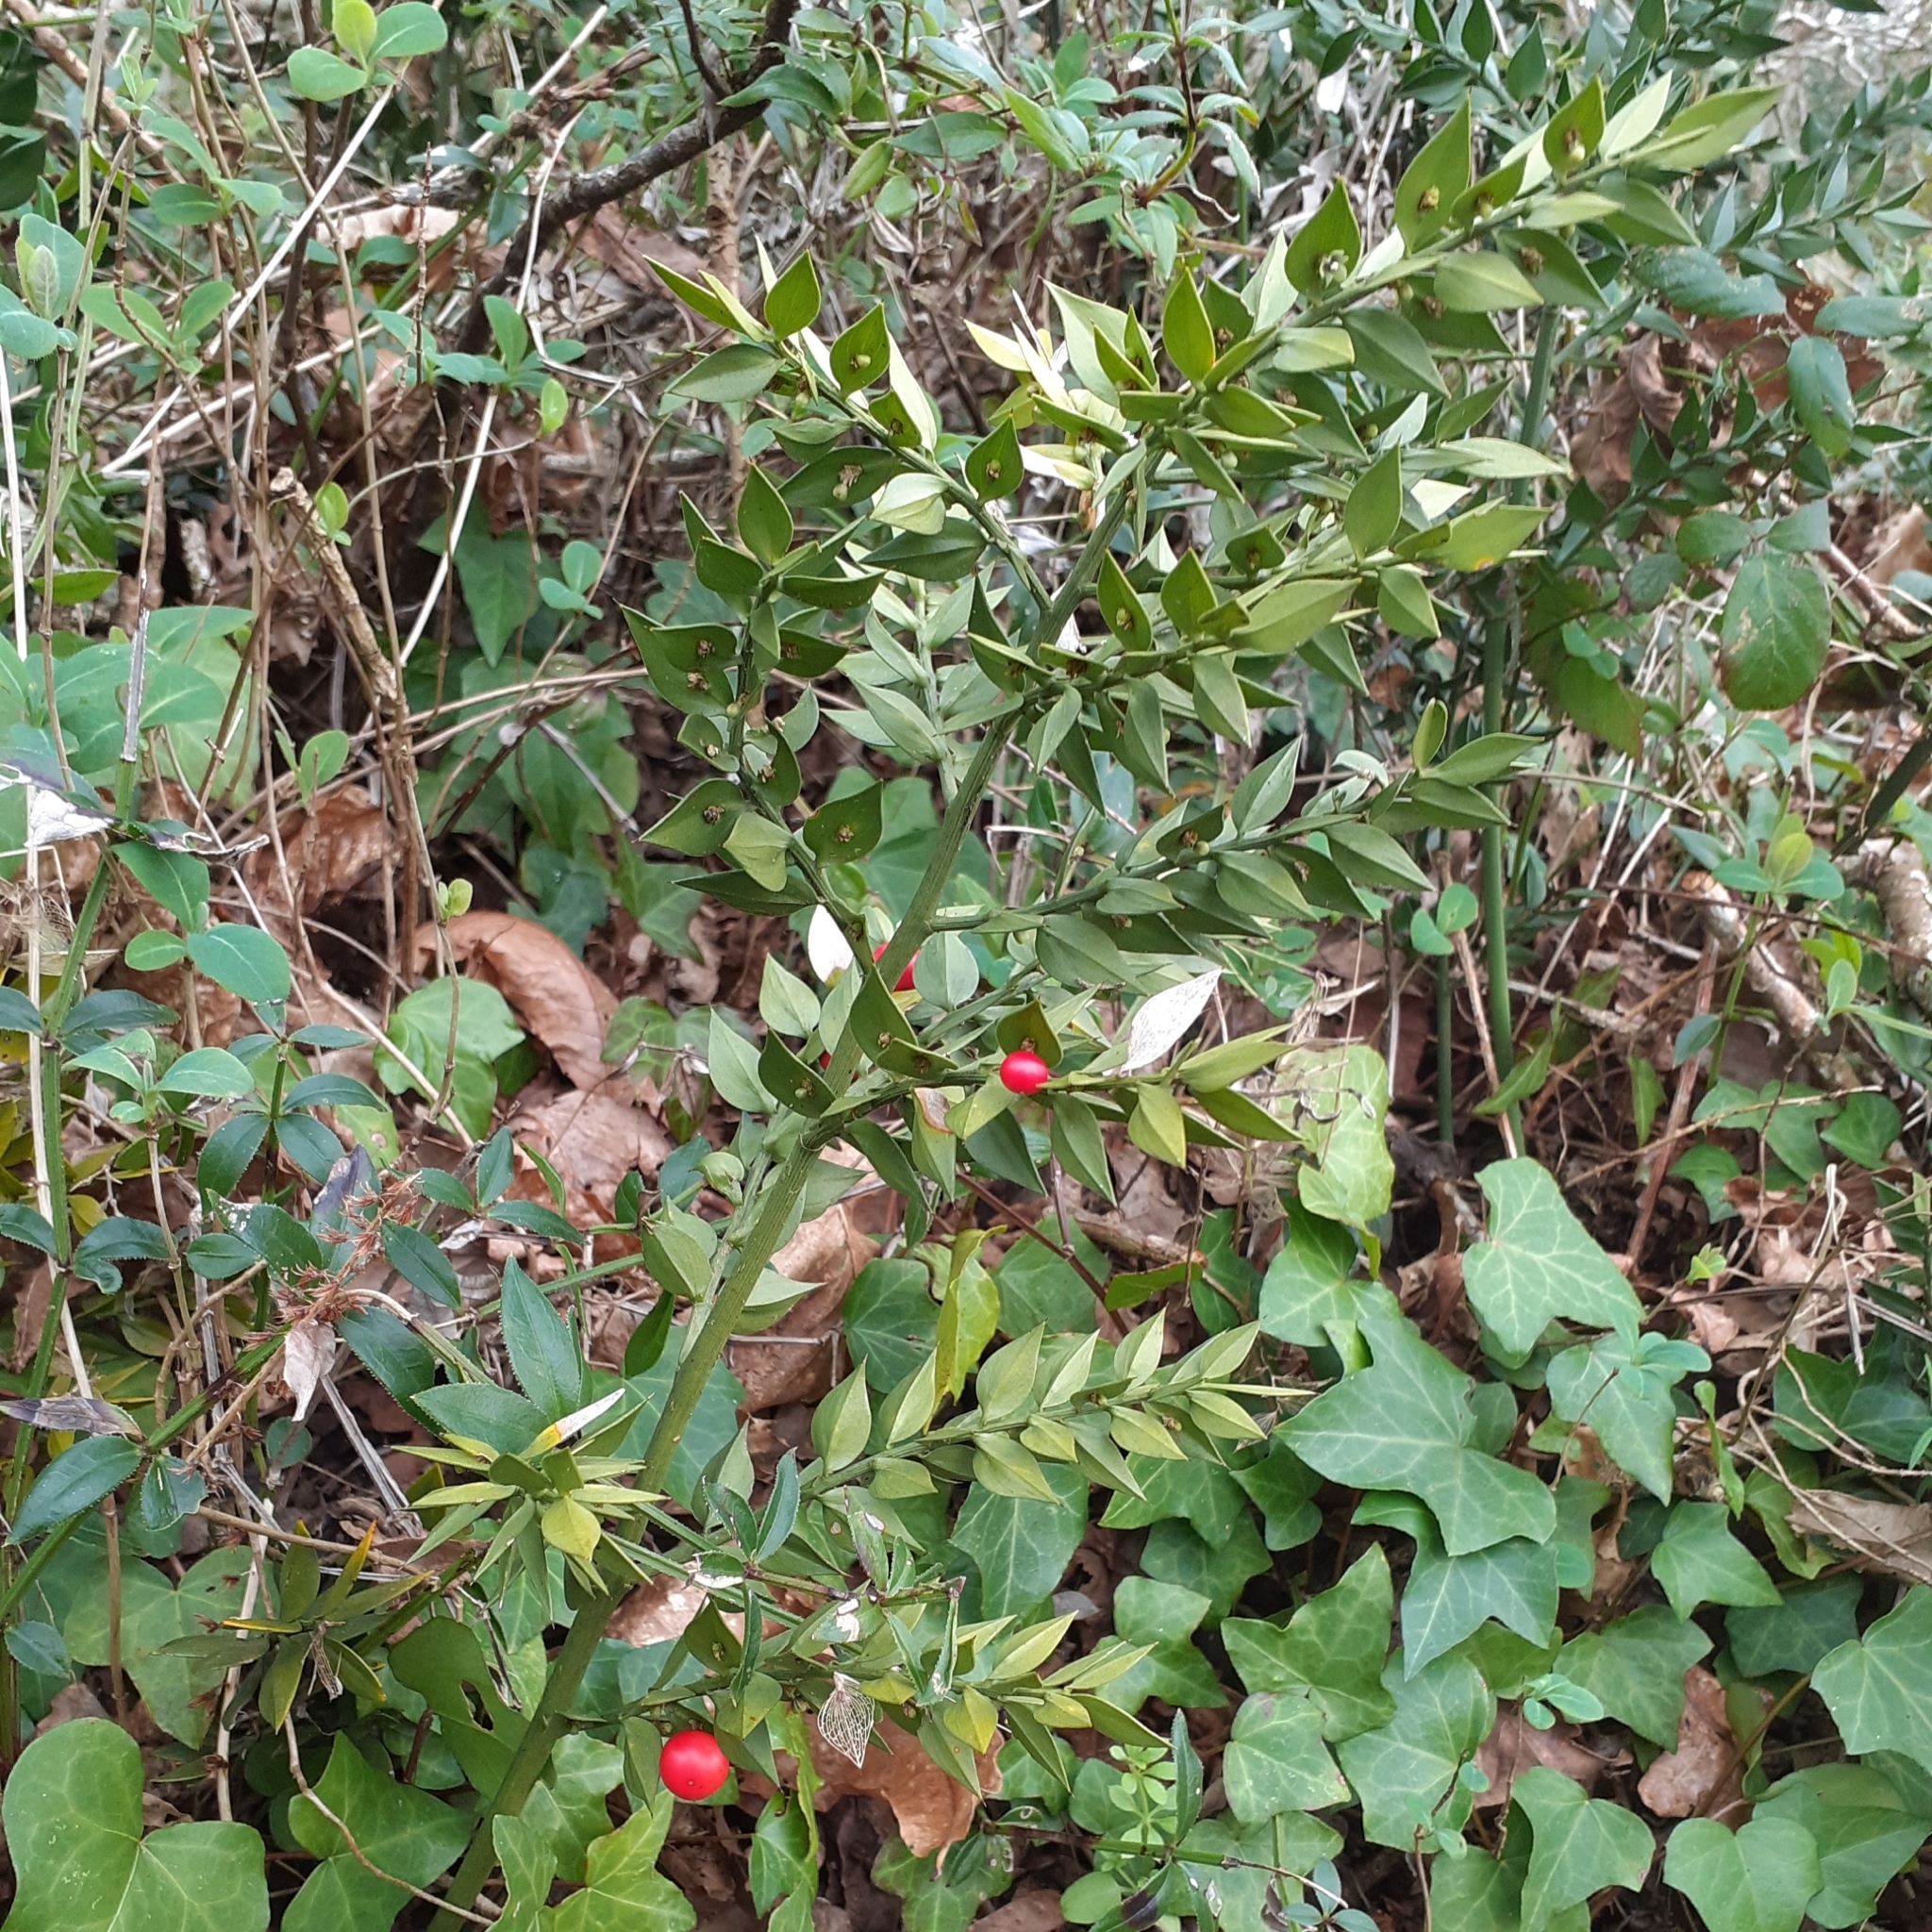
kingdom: Plantae
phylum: Tracheophyta
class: Liliopsida
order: Asparagales
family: Asparagaceae
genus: Ruscus
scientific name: Ruscus aculeatus
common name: Butcher's-broom
